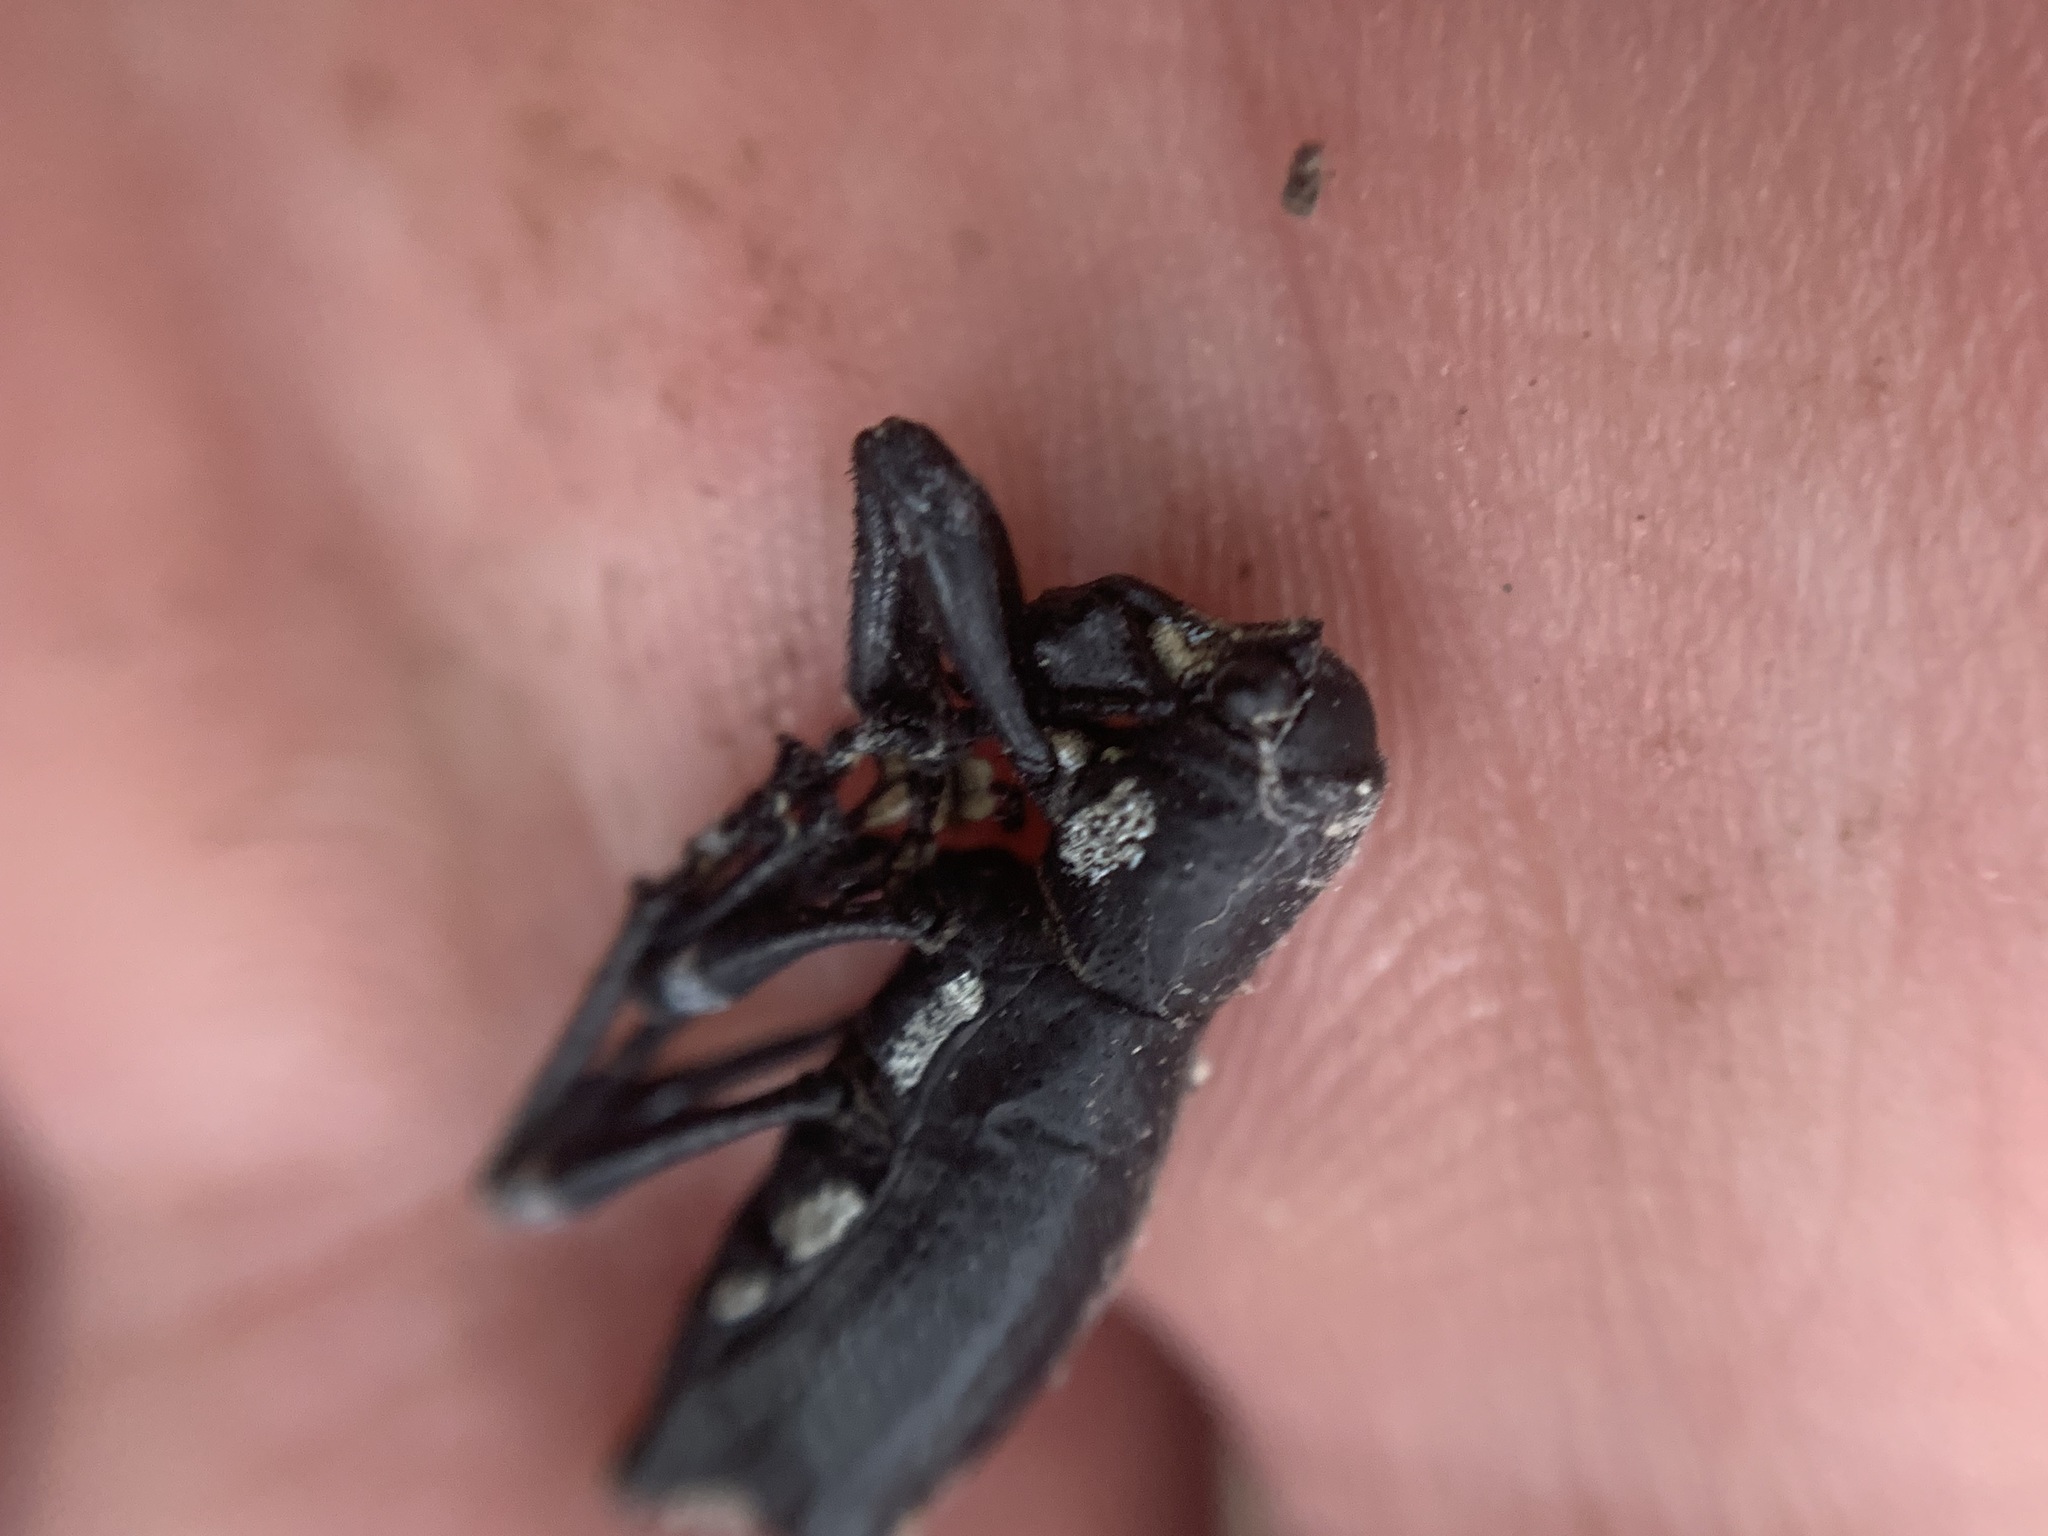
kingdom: Animalia
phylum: Arthropoda
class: Insecta
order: Coleoptera
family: Curculionidae
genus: Aegorhinus
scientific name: Aegorhinus
